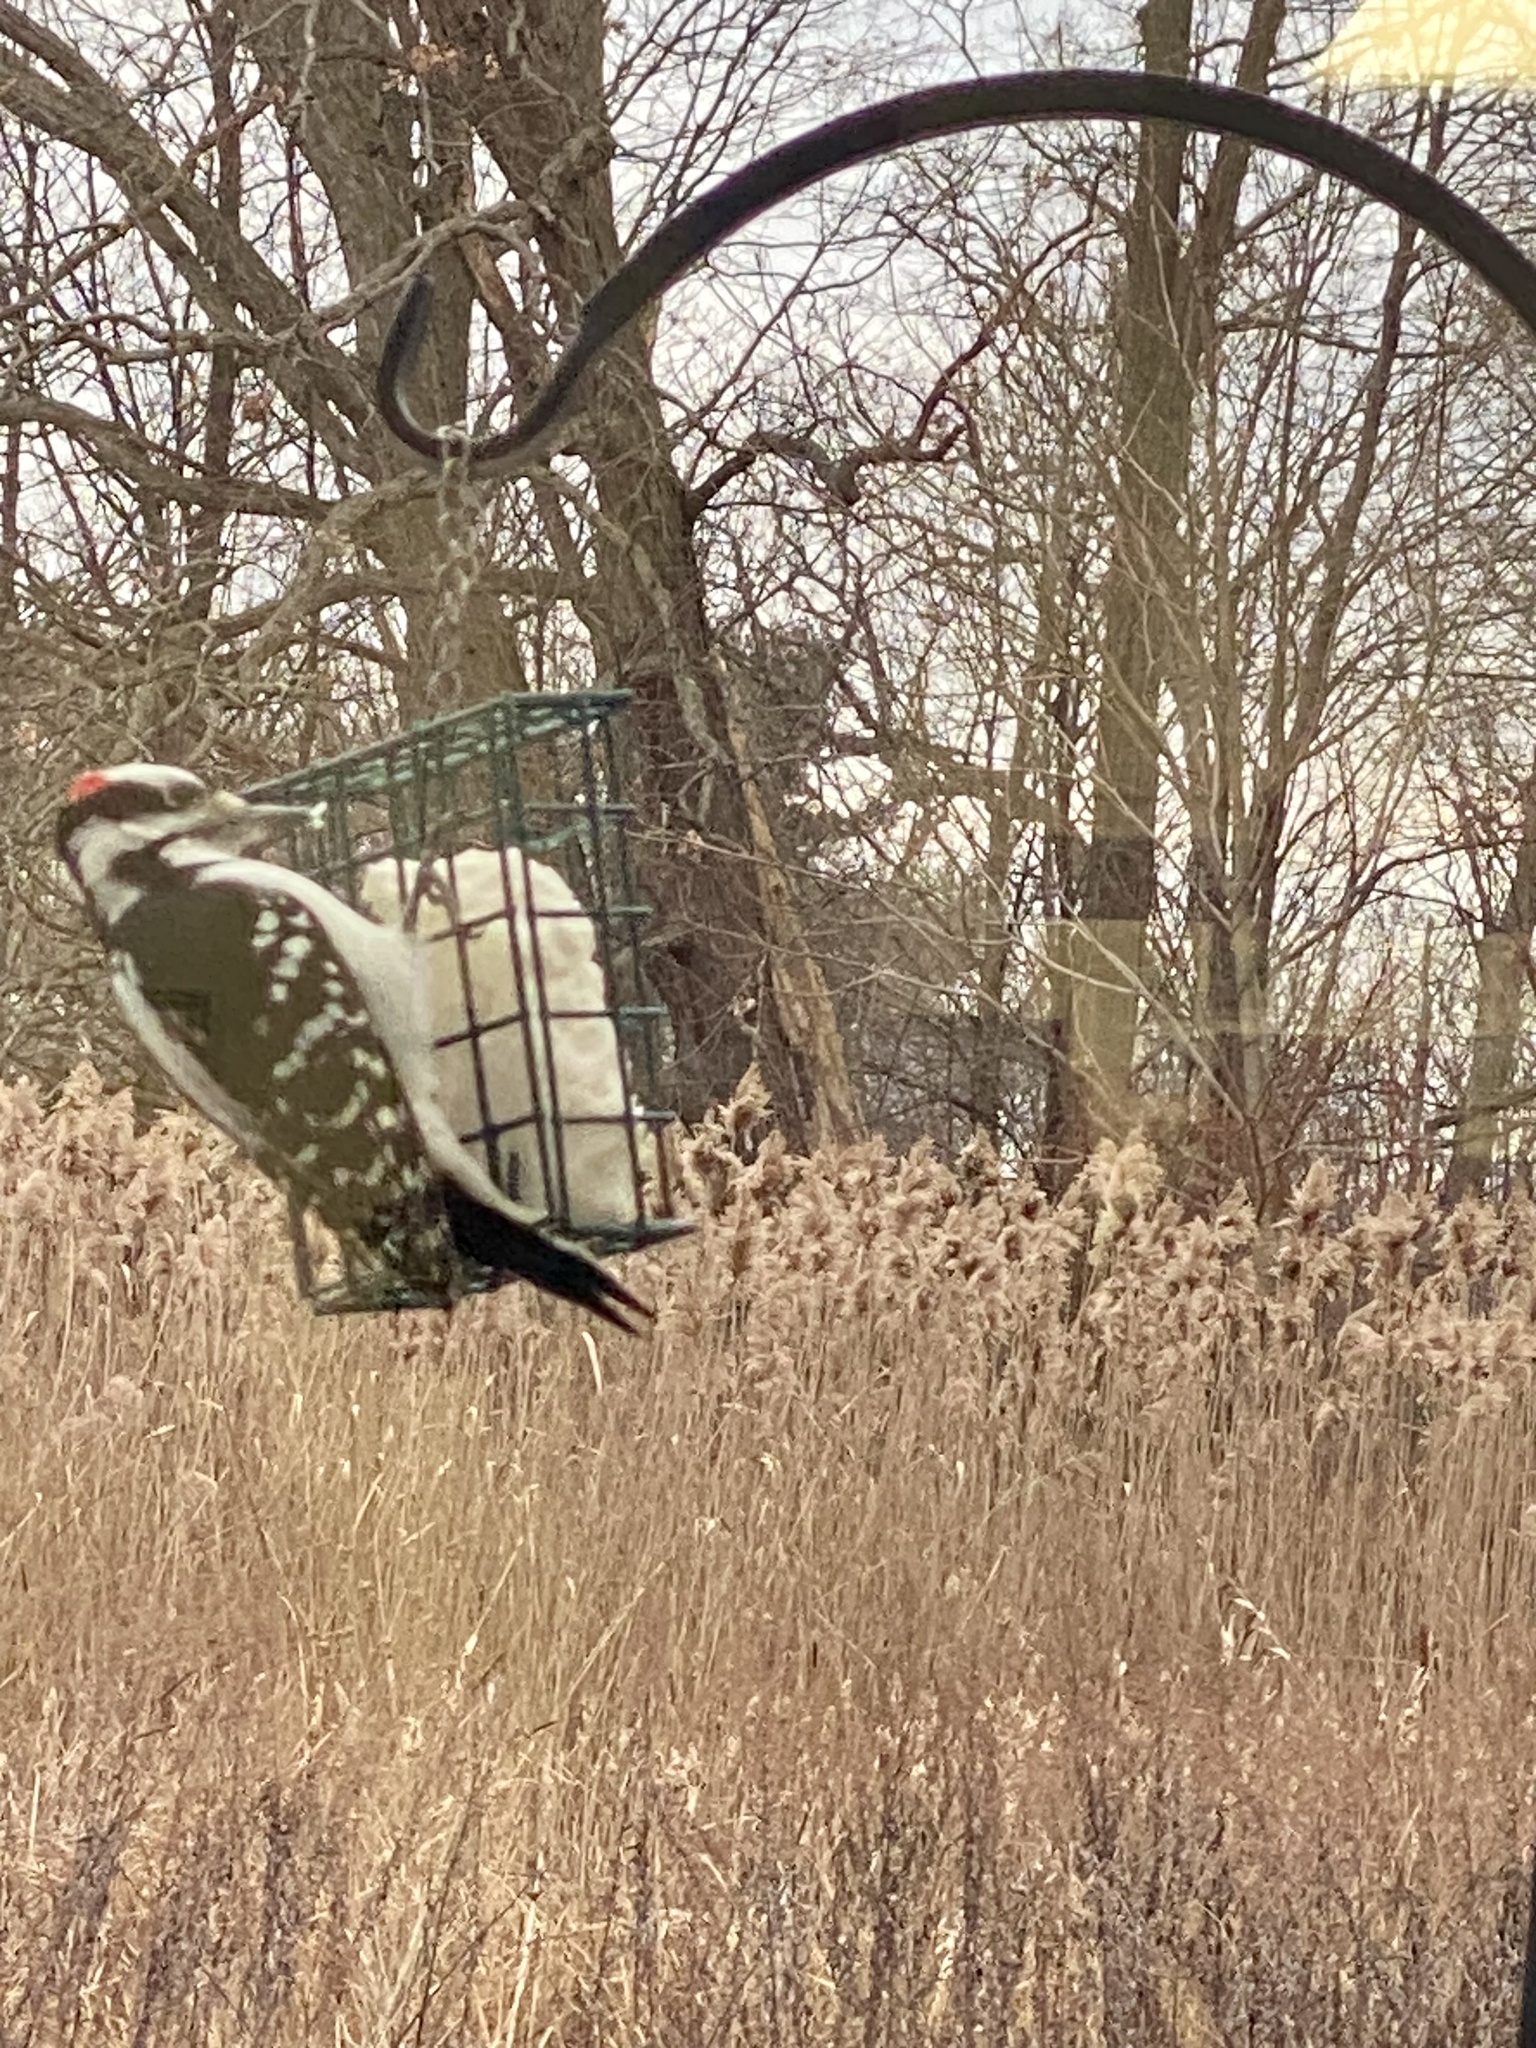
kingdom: Animalia
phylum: Chordata
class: Aves
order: Piciformes
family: Picidae
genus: Leuconotopicus
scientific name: Leuconotopicus villosus
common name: Hairy woodpecker
